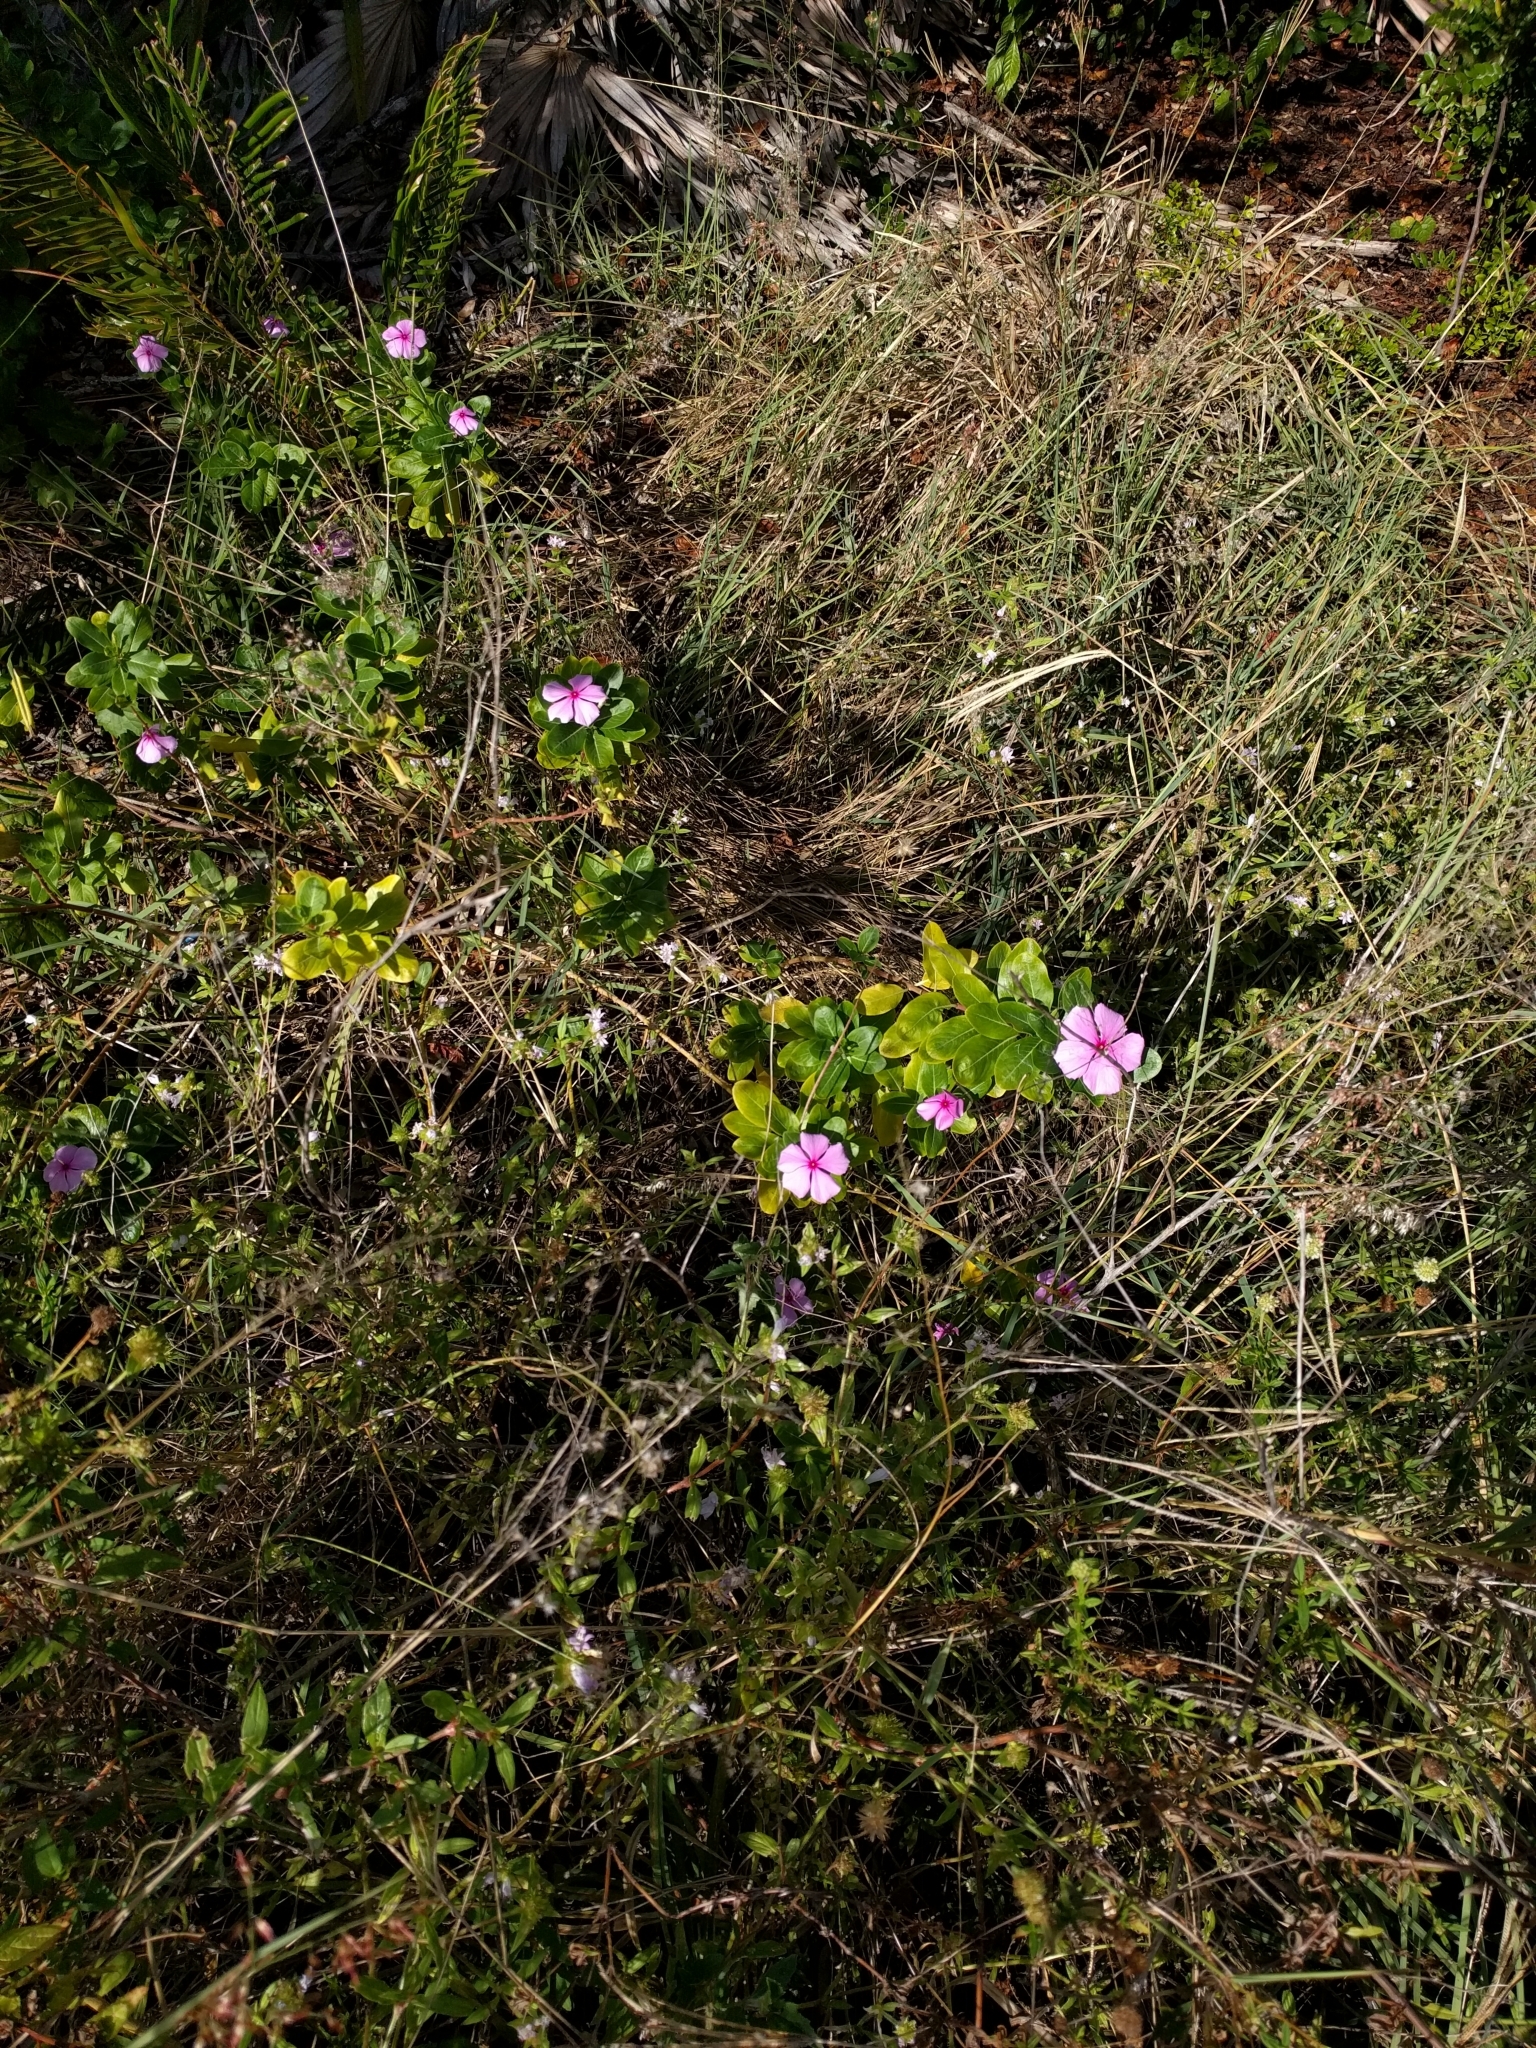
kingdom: Plantae
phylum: Tracheophyta
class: Magnoliopsida
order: Gentianales
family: Apocynaceae
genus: Catharanthus
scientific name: Catharanthus roseus
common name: Madagascar periwinkle
